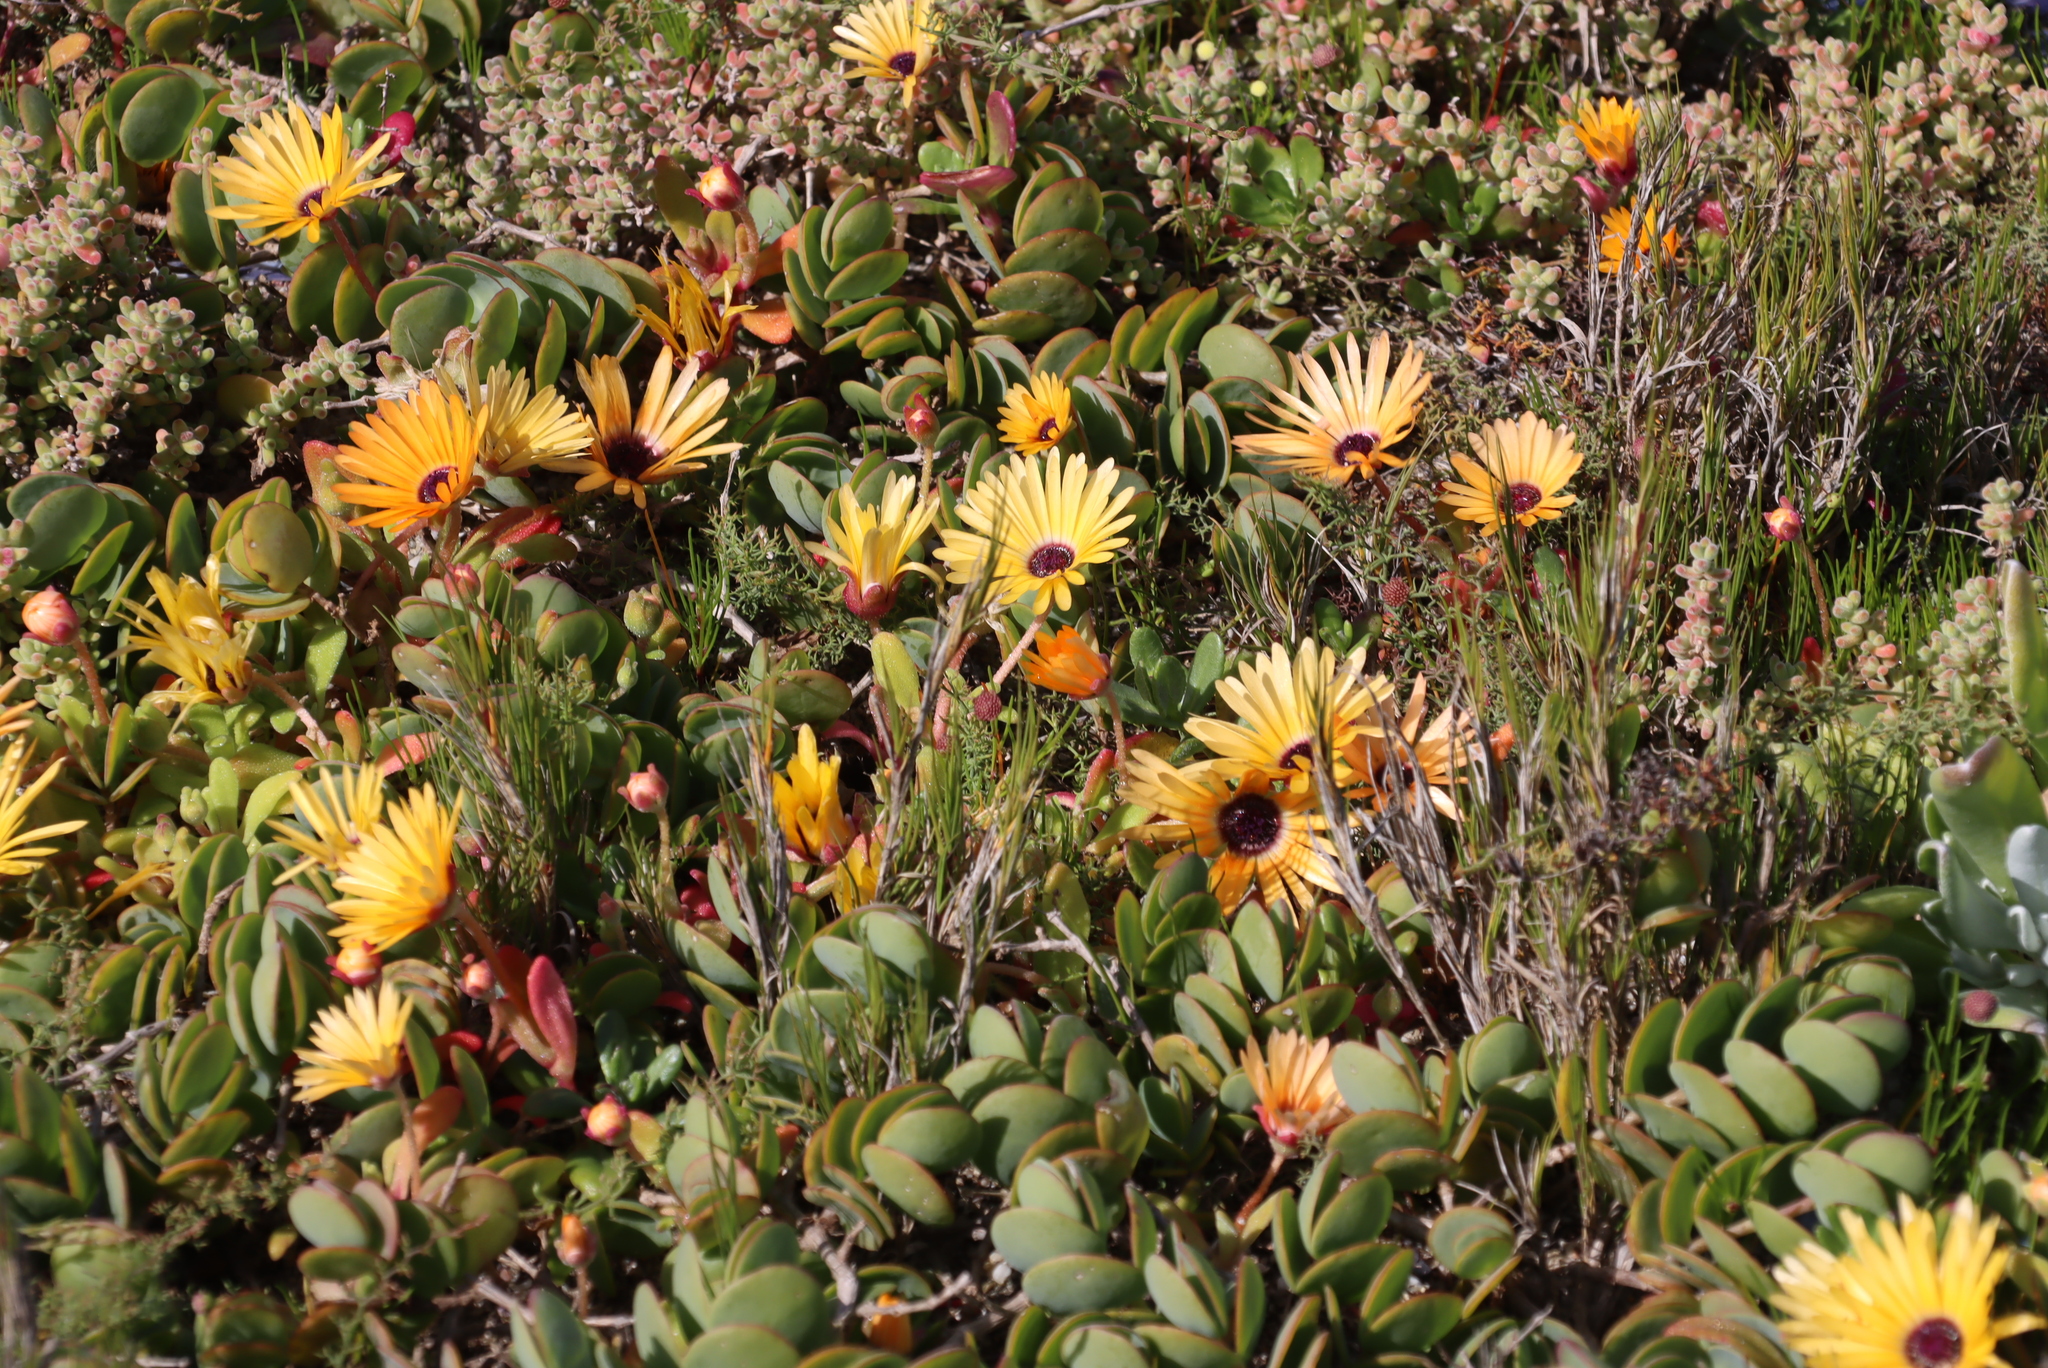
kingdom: Plantae
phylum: Tracheophyta
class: Magnoliopsida
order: Caryophyllales
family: Aizoaceae
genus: Cleretum
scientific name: Cleretum bellidiforme
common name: Livingstone daisy
